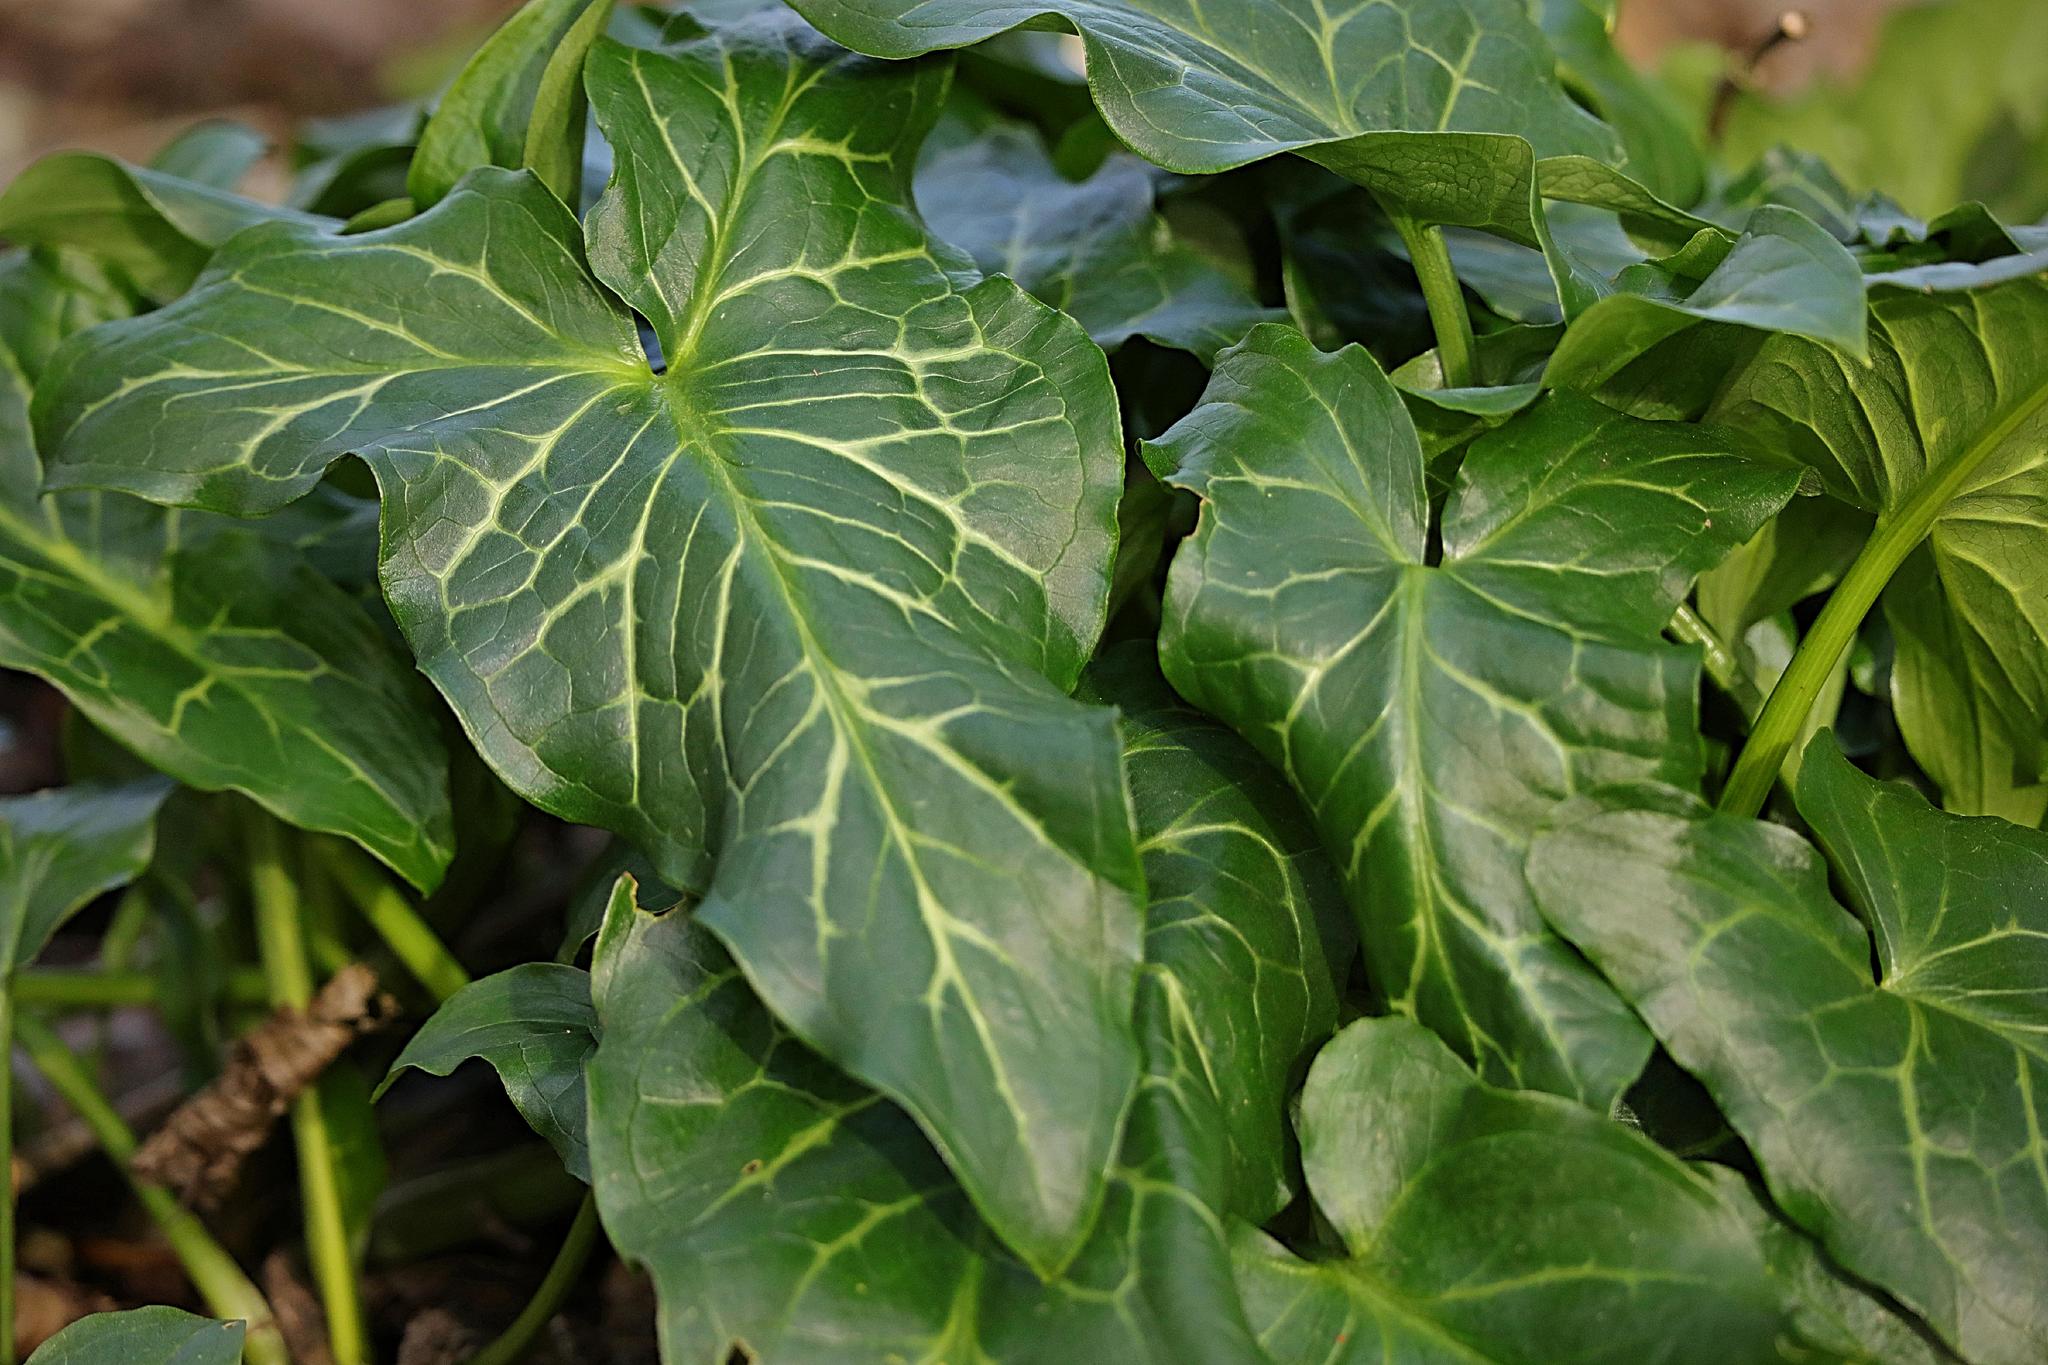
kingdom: Plantae
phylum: Tracheophyta
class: Liliopsida
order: Alismatales
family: Araceae
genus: Arum
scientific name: Arum italicum
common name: Italian lords-and-ladies
